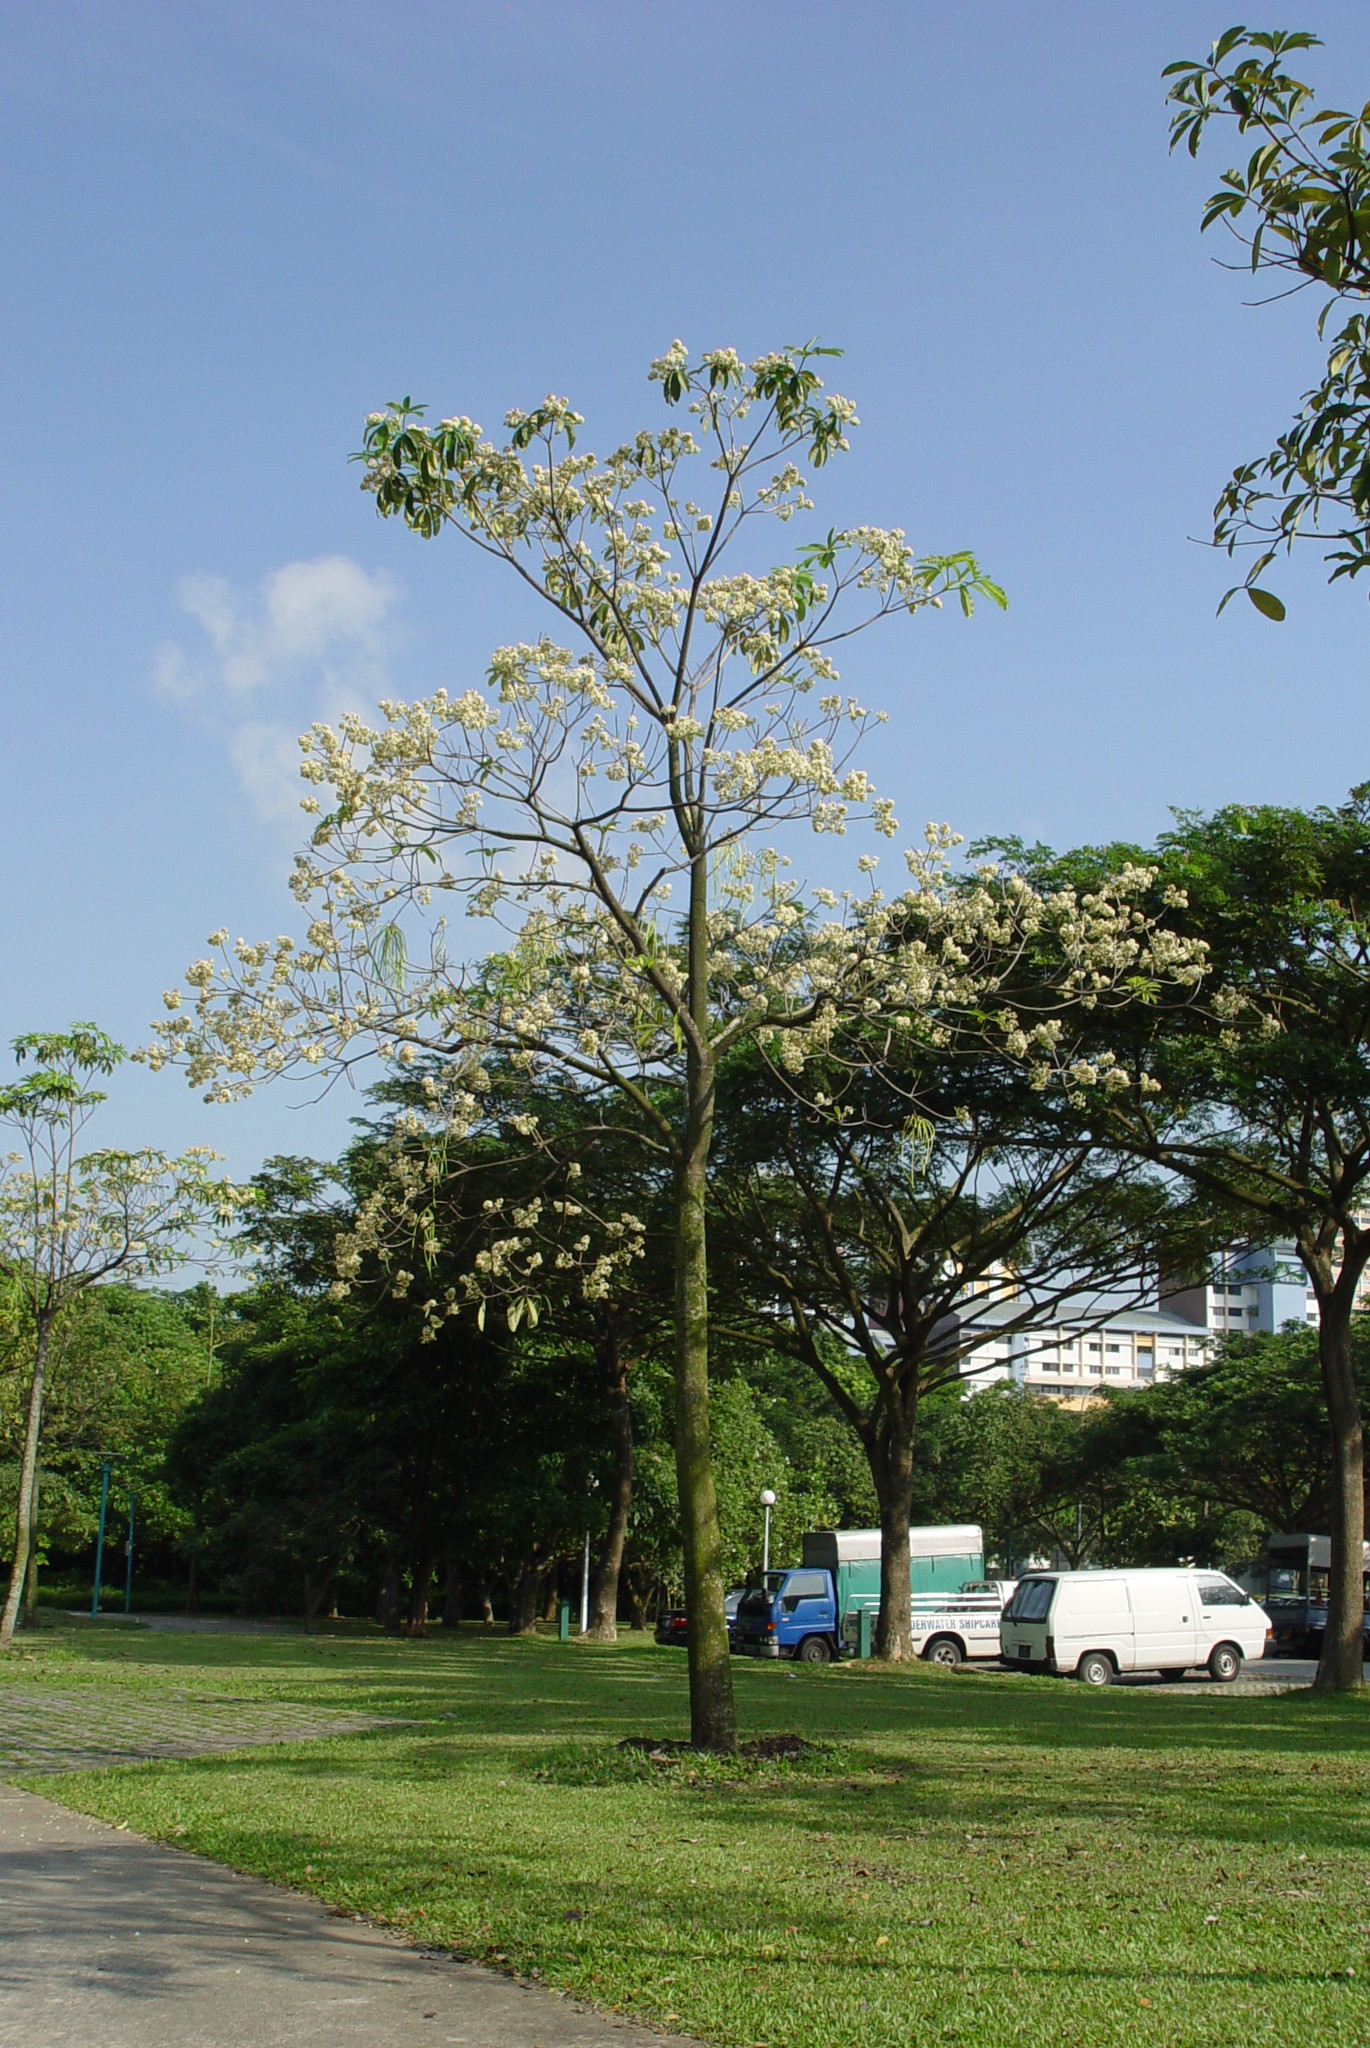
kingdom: Plantae
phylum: Tracheophyta
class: Magnoliopsida
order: Gentianales
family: Apocynaceae
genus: Alstonia
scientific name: Alstonia scholaris
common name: White cheesewood
